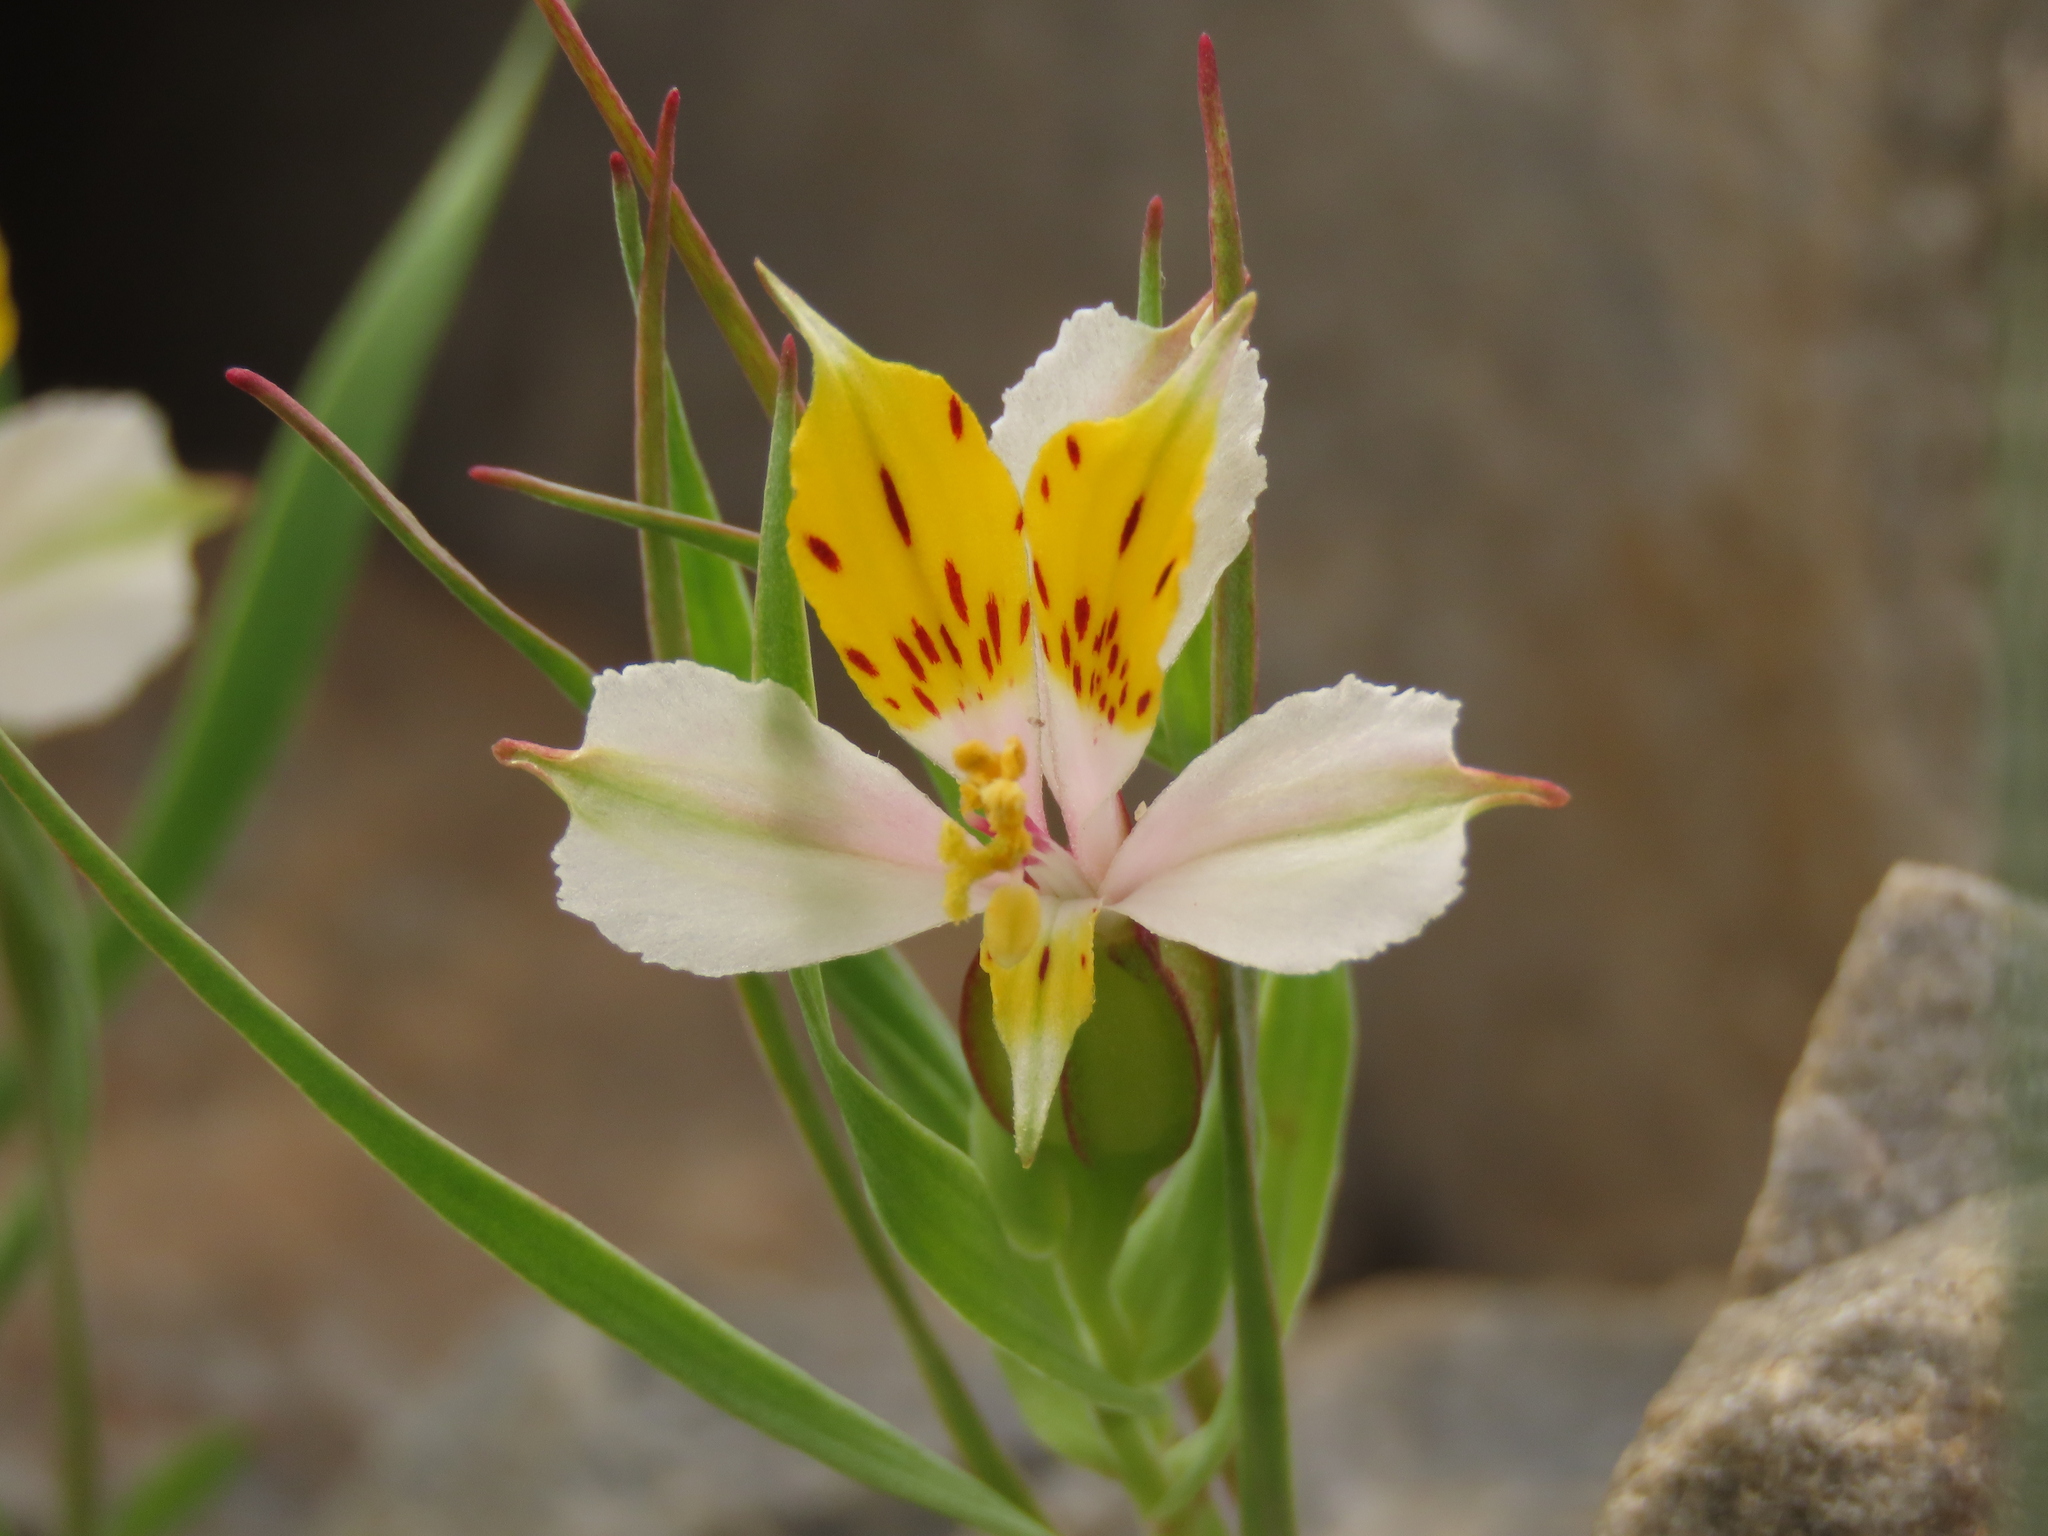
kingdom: Plantae
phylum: Tracheophyta
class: Liliopsida
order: Liliales
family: Alstroemeriaceae
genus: Alstroemeria
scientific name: Alstroemeria graminea
